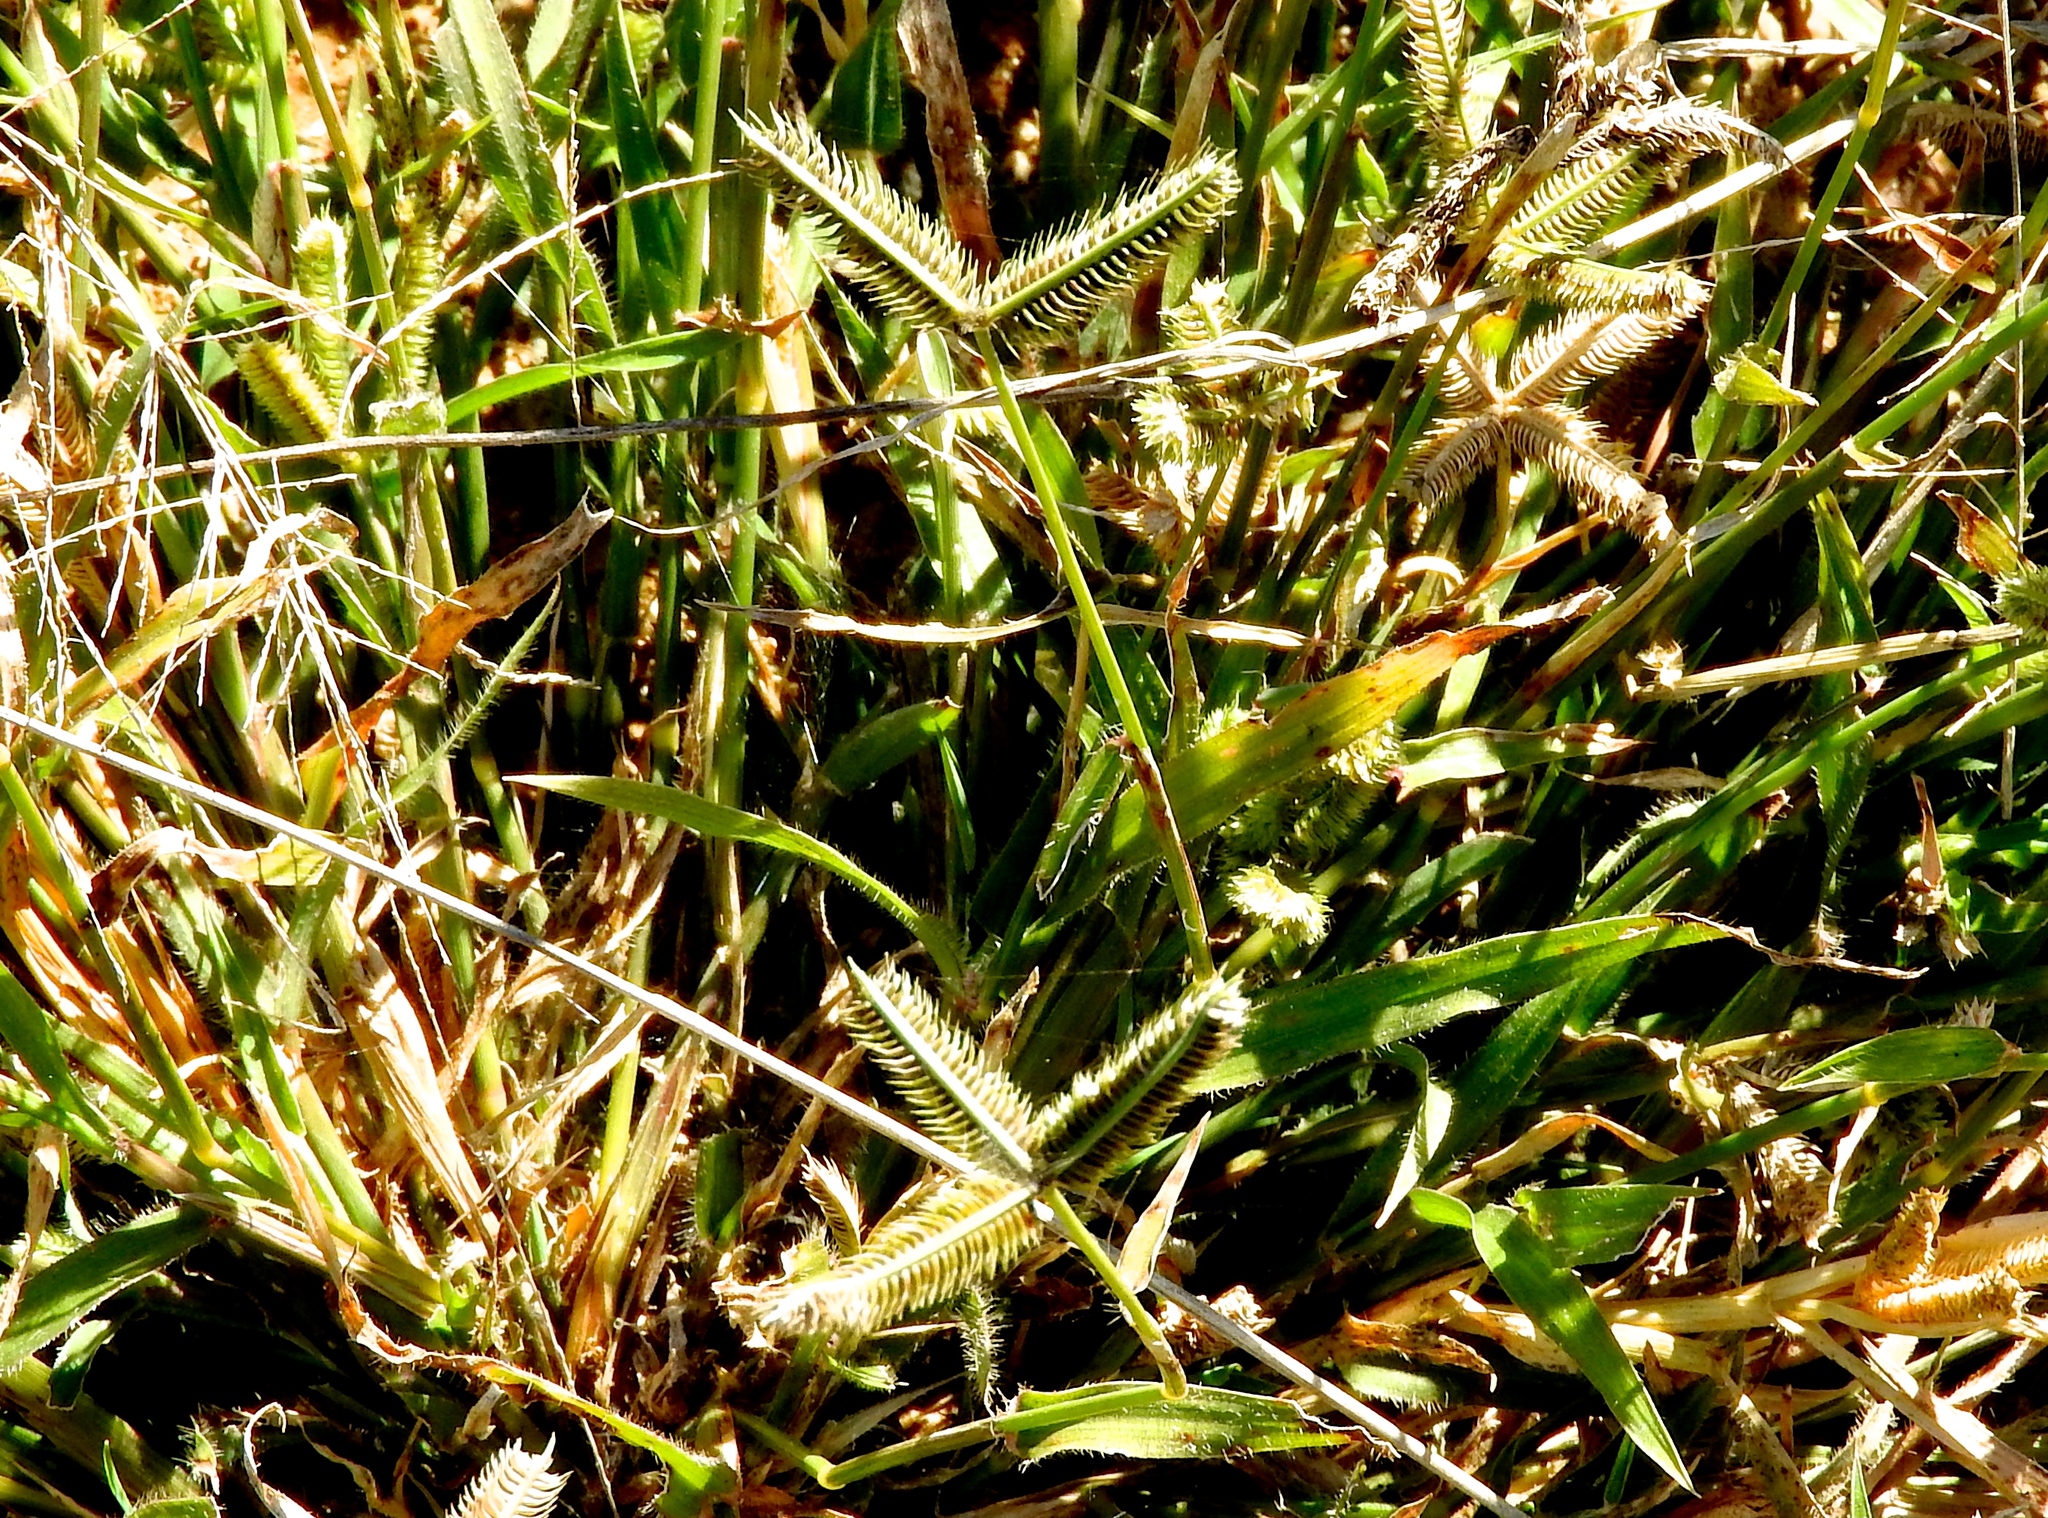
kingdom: Plantae
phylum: Tracheophyta
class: Liliopsida
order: Poales
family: Poaceae
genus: Dactyloctenium
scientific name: Dactyloctenium aegyptium
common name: Egyptian grass
